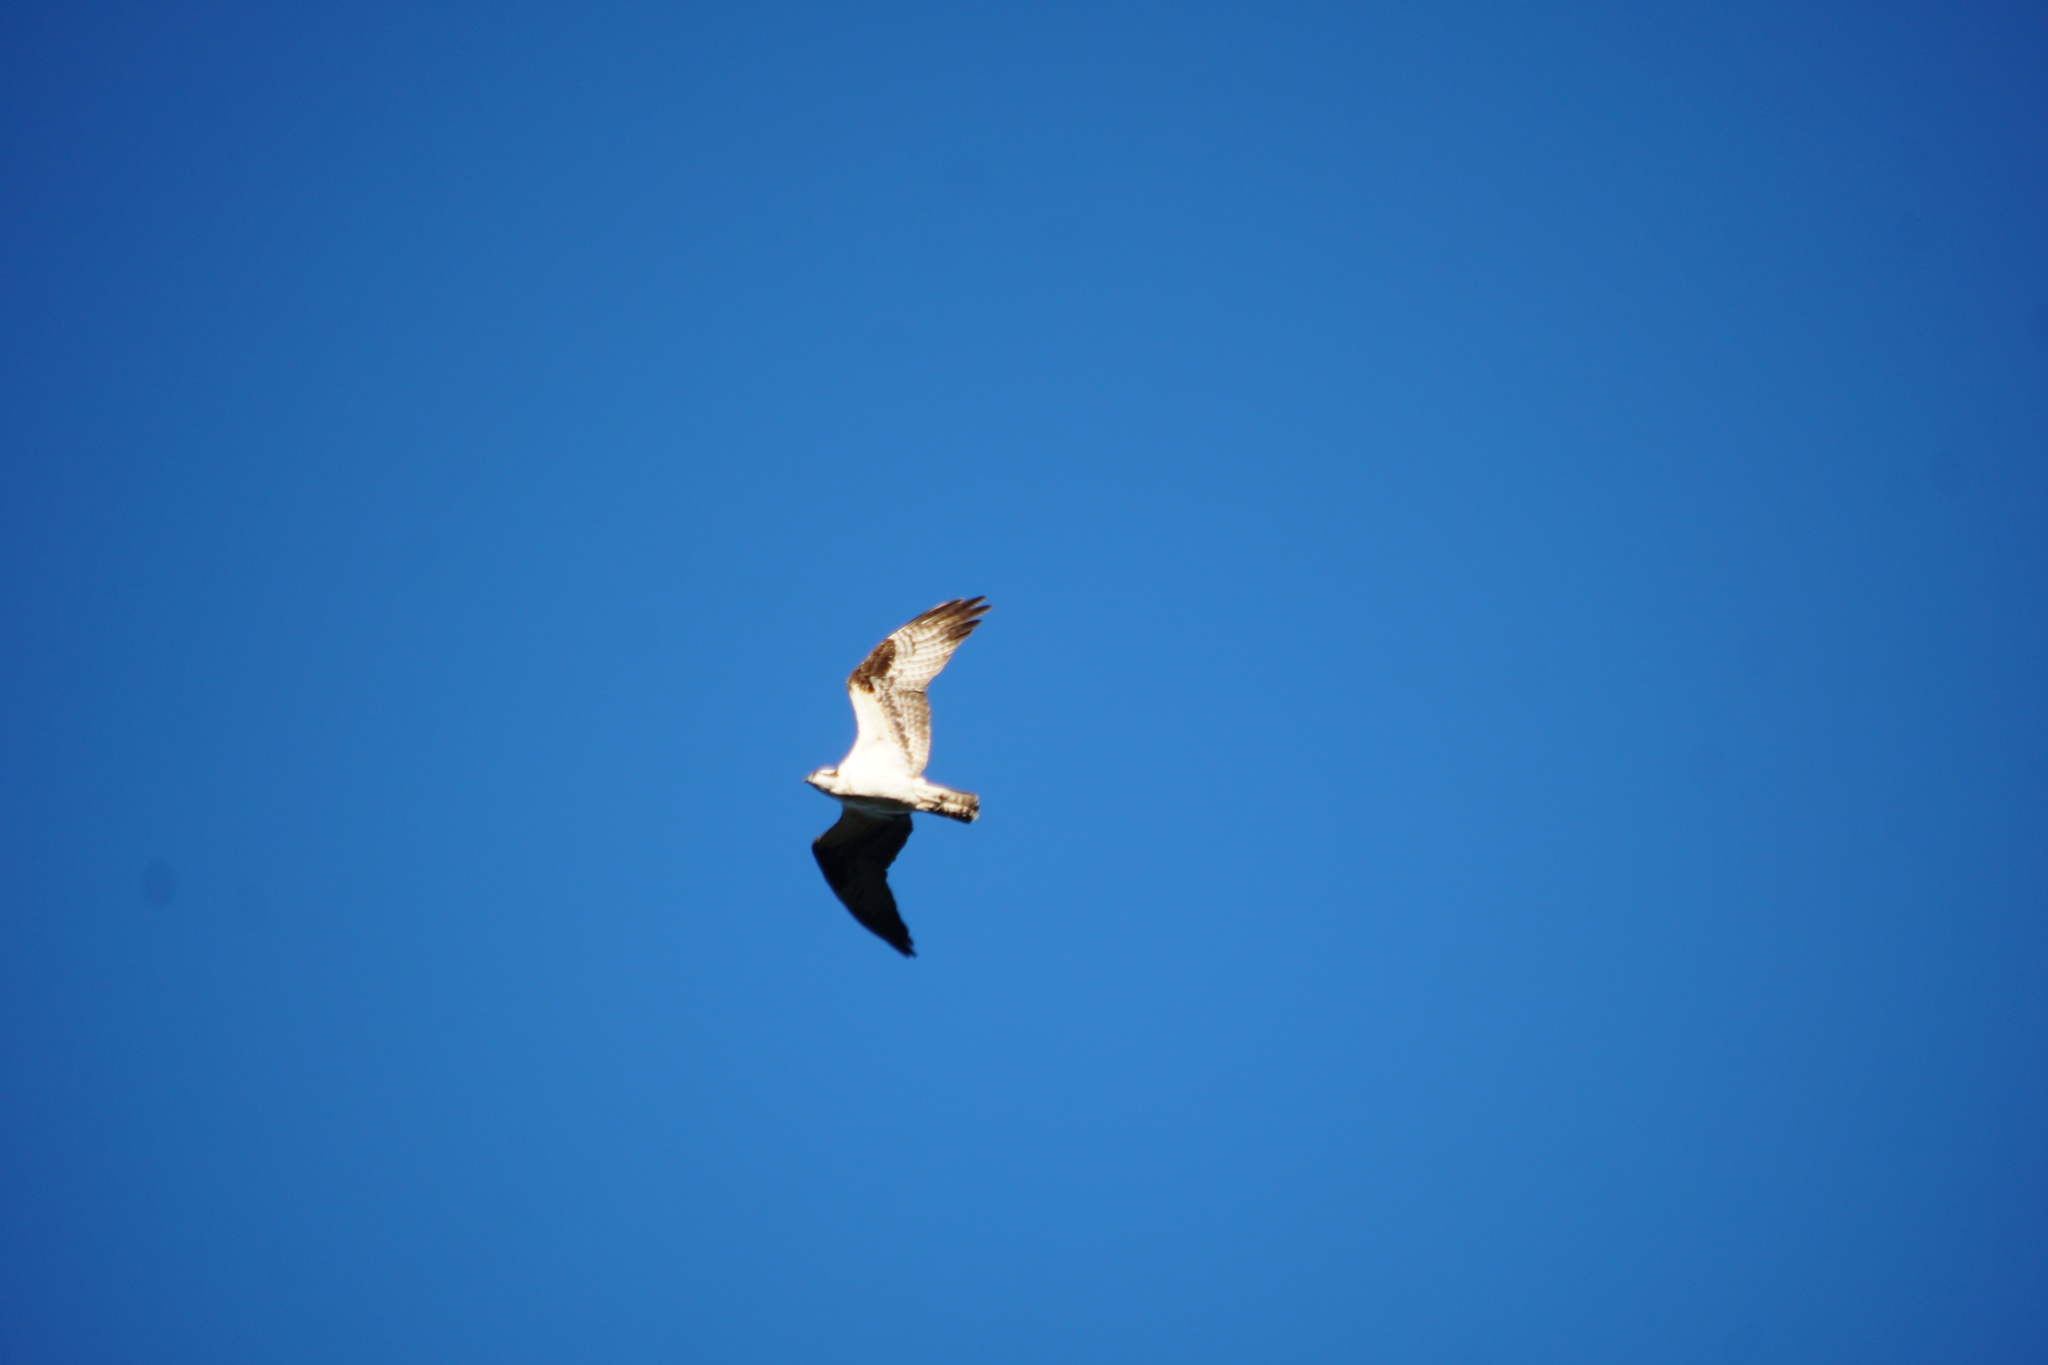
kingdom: Animalia
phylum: Chordata
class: Aves
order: Accipitriformes
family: Pandionidae
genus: Pandion
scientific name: Pandion haliaetus
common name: Osprey
